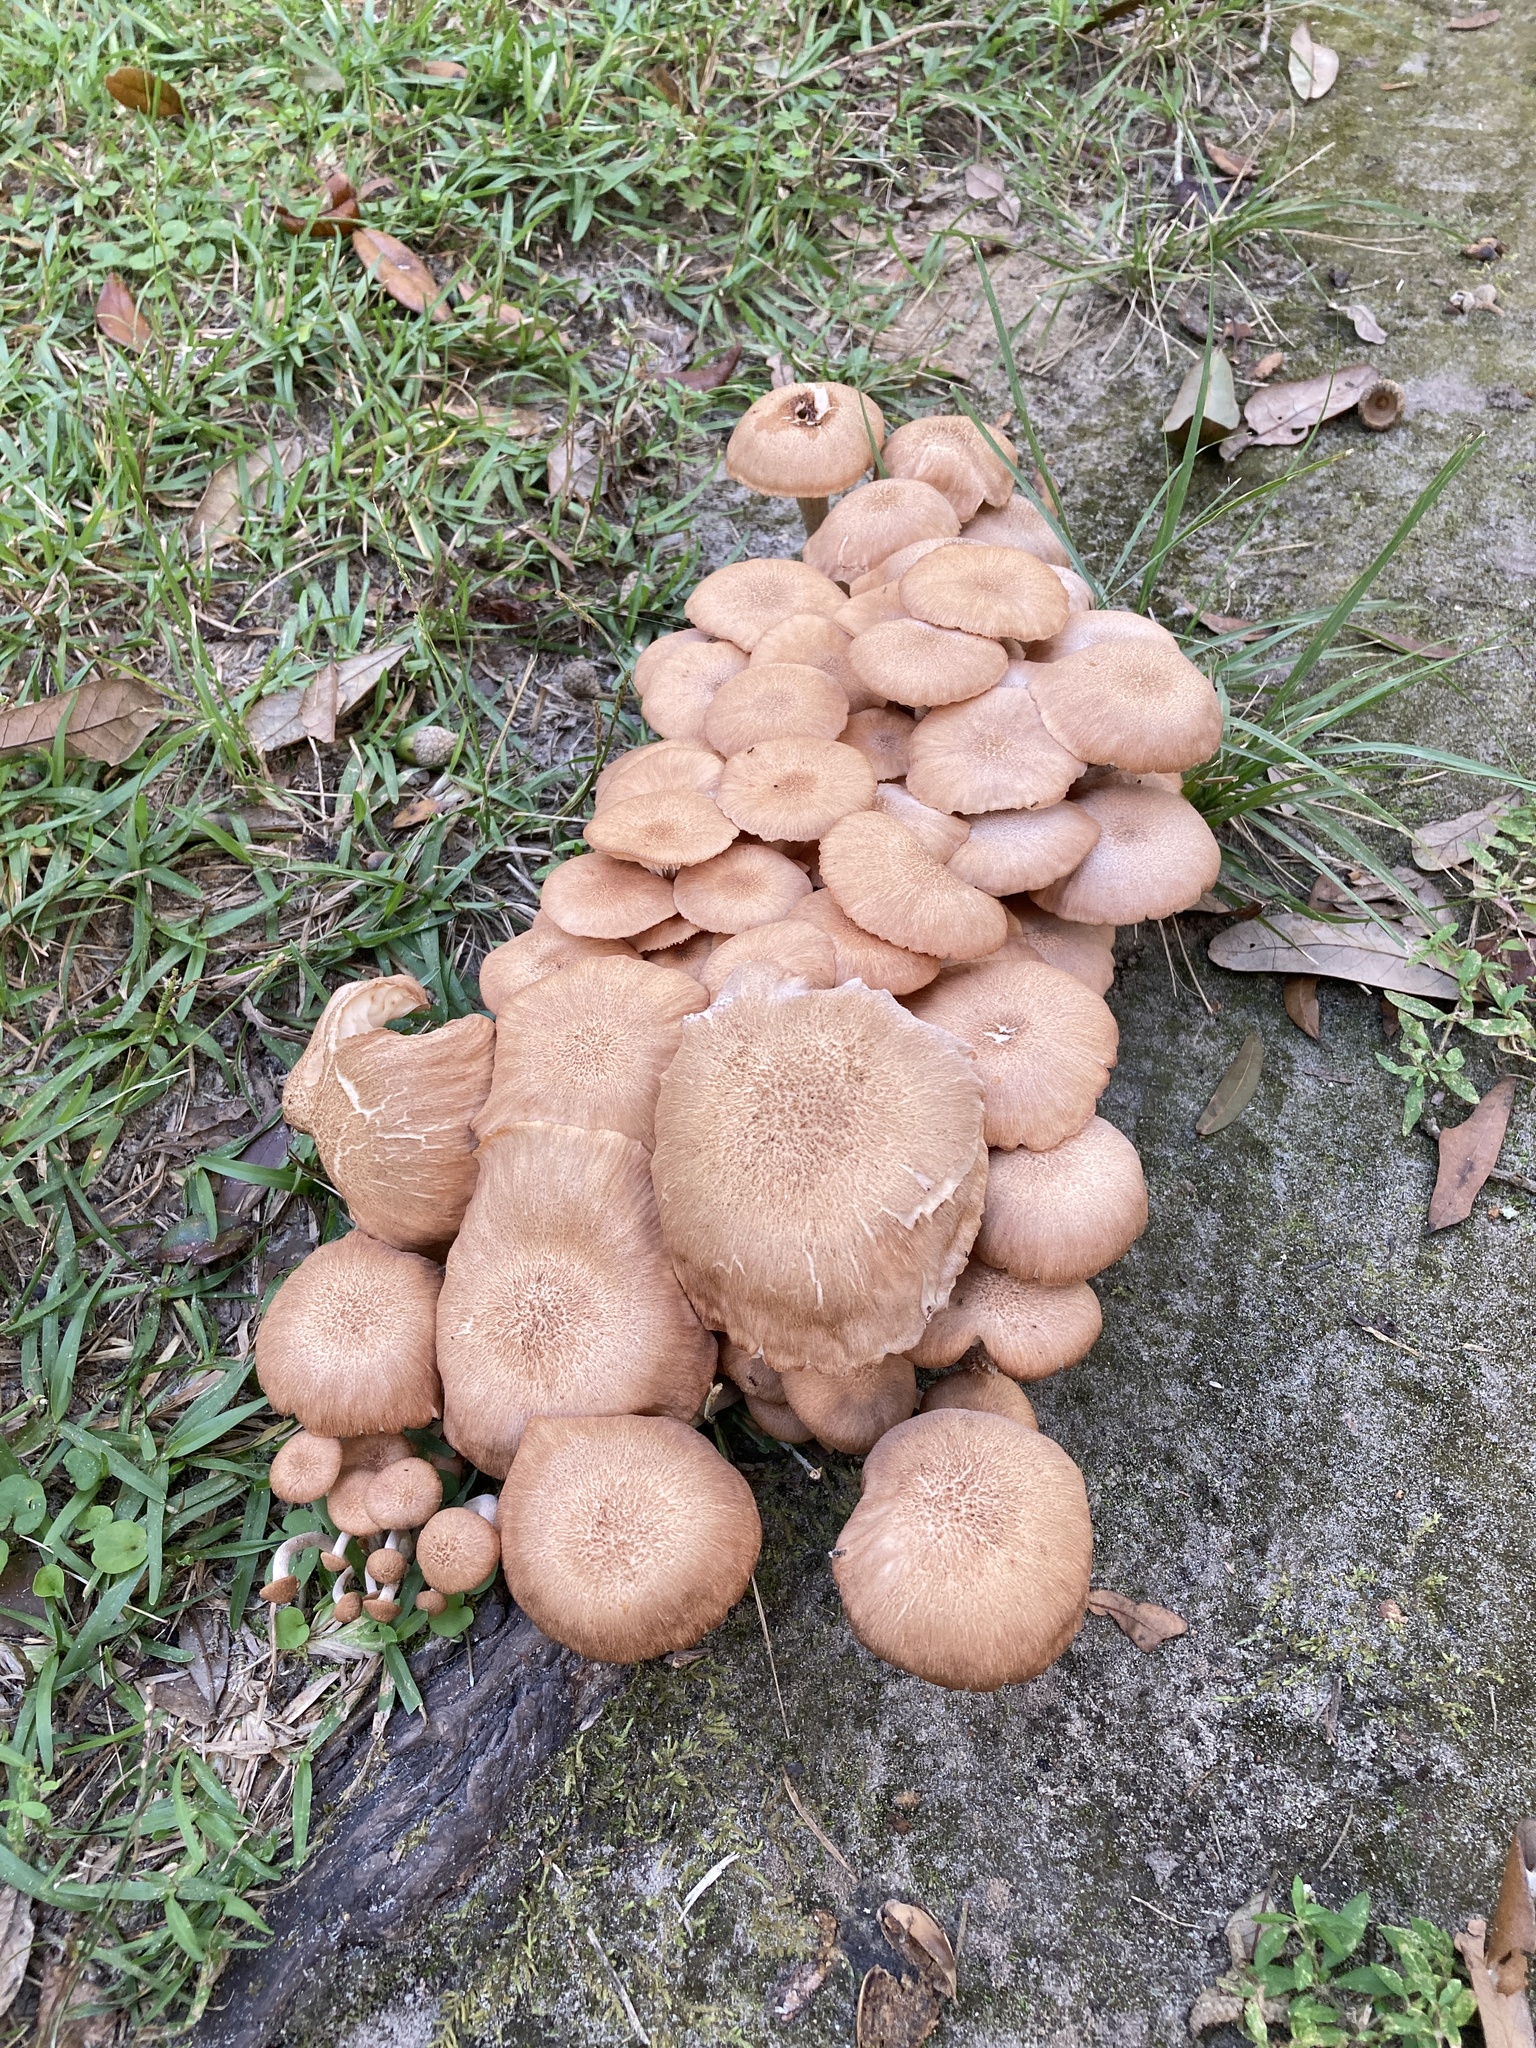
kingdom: Fungi
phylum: Basidiomycota
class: Agaricomycetes
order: Agaricales
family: Physalacriaceae
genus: Desarmillaria
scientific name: Desarmillaria caespitosa
